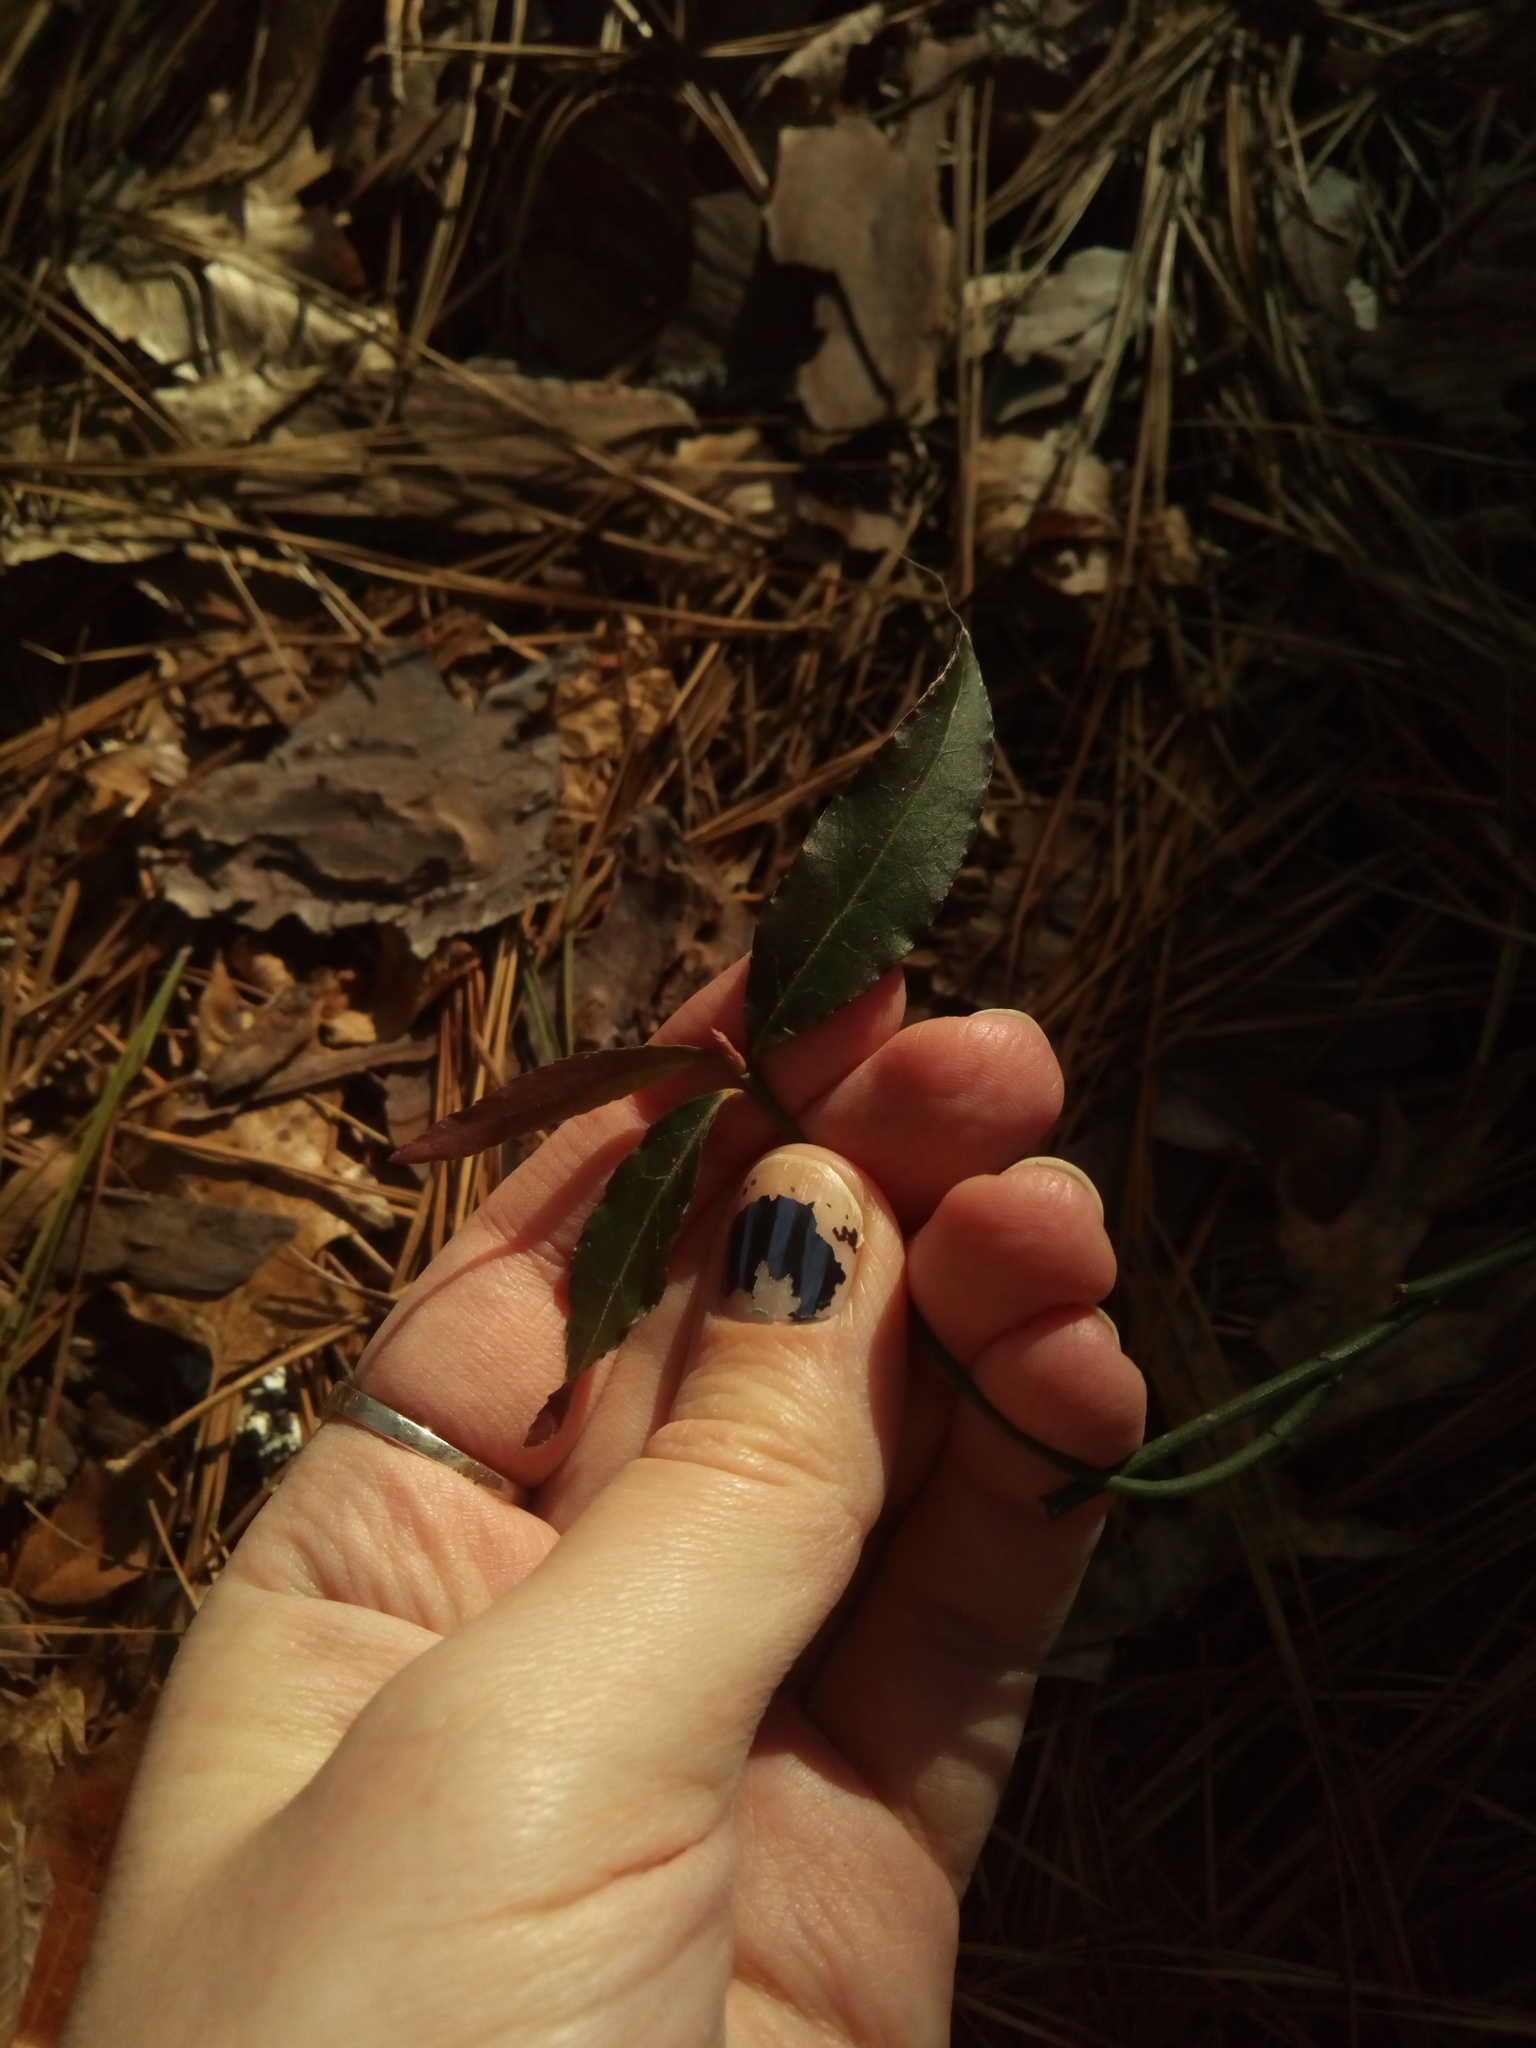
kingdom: Plantae
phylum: Tracheophyta
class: Magnoliopsida
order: Celastrales
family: Celastraceae
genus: Euonymus
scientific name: Euonymus americanus
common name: Bursting-heart
